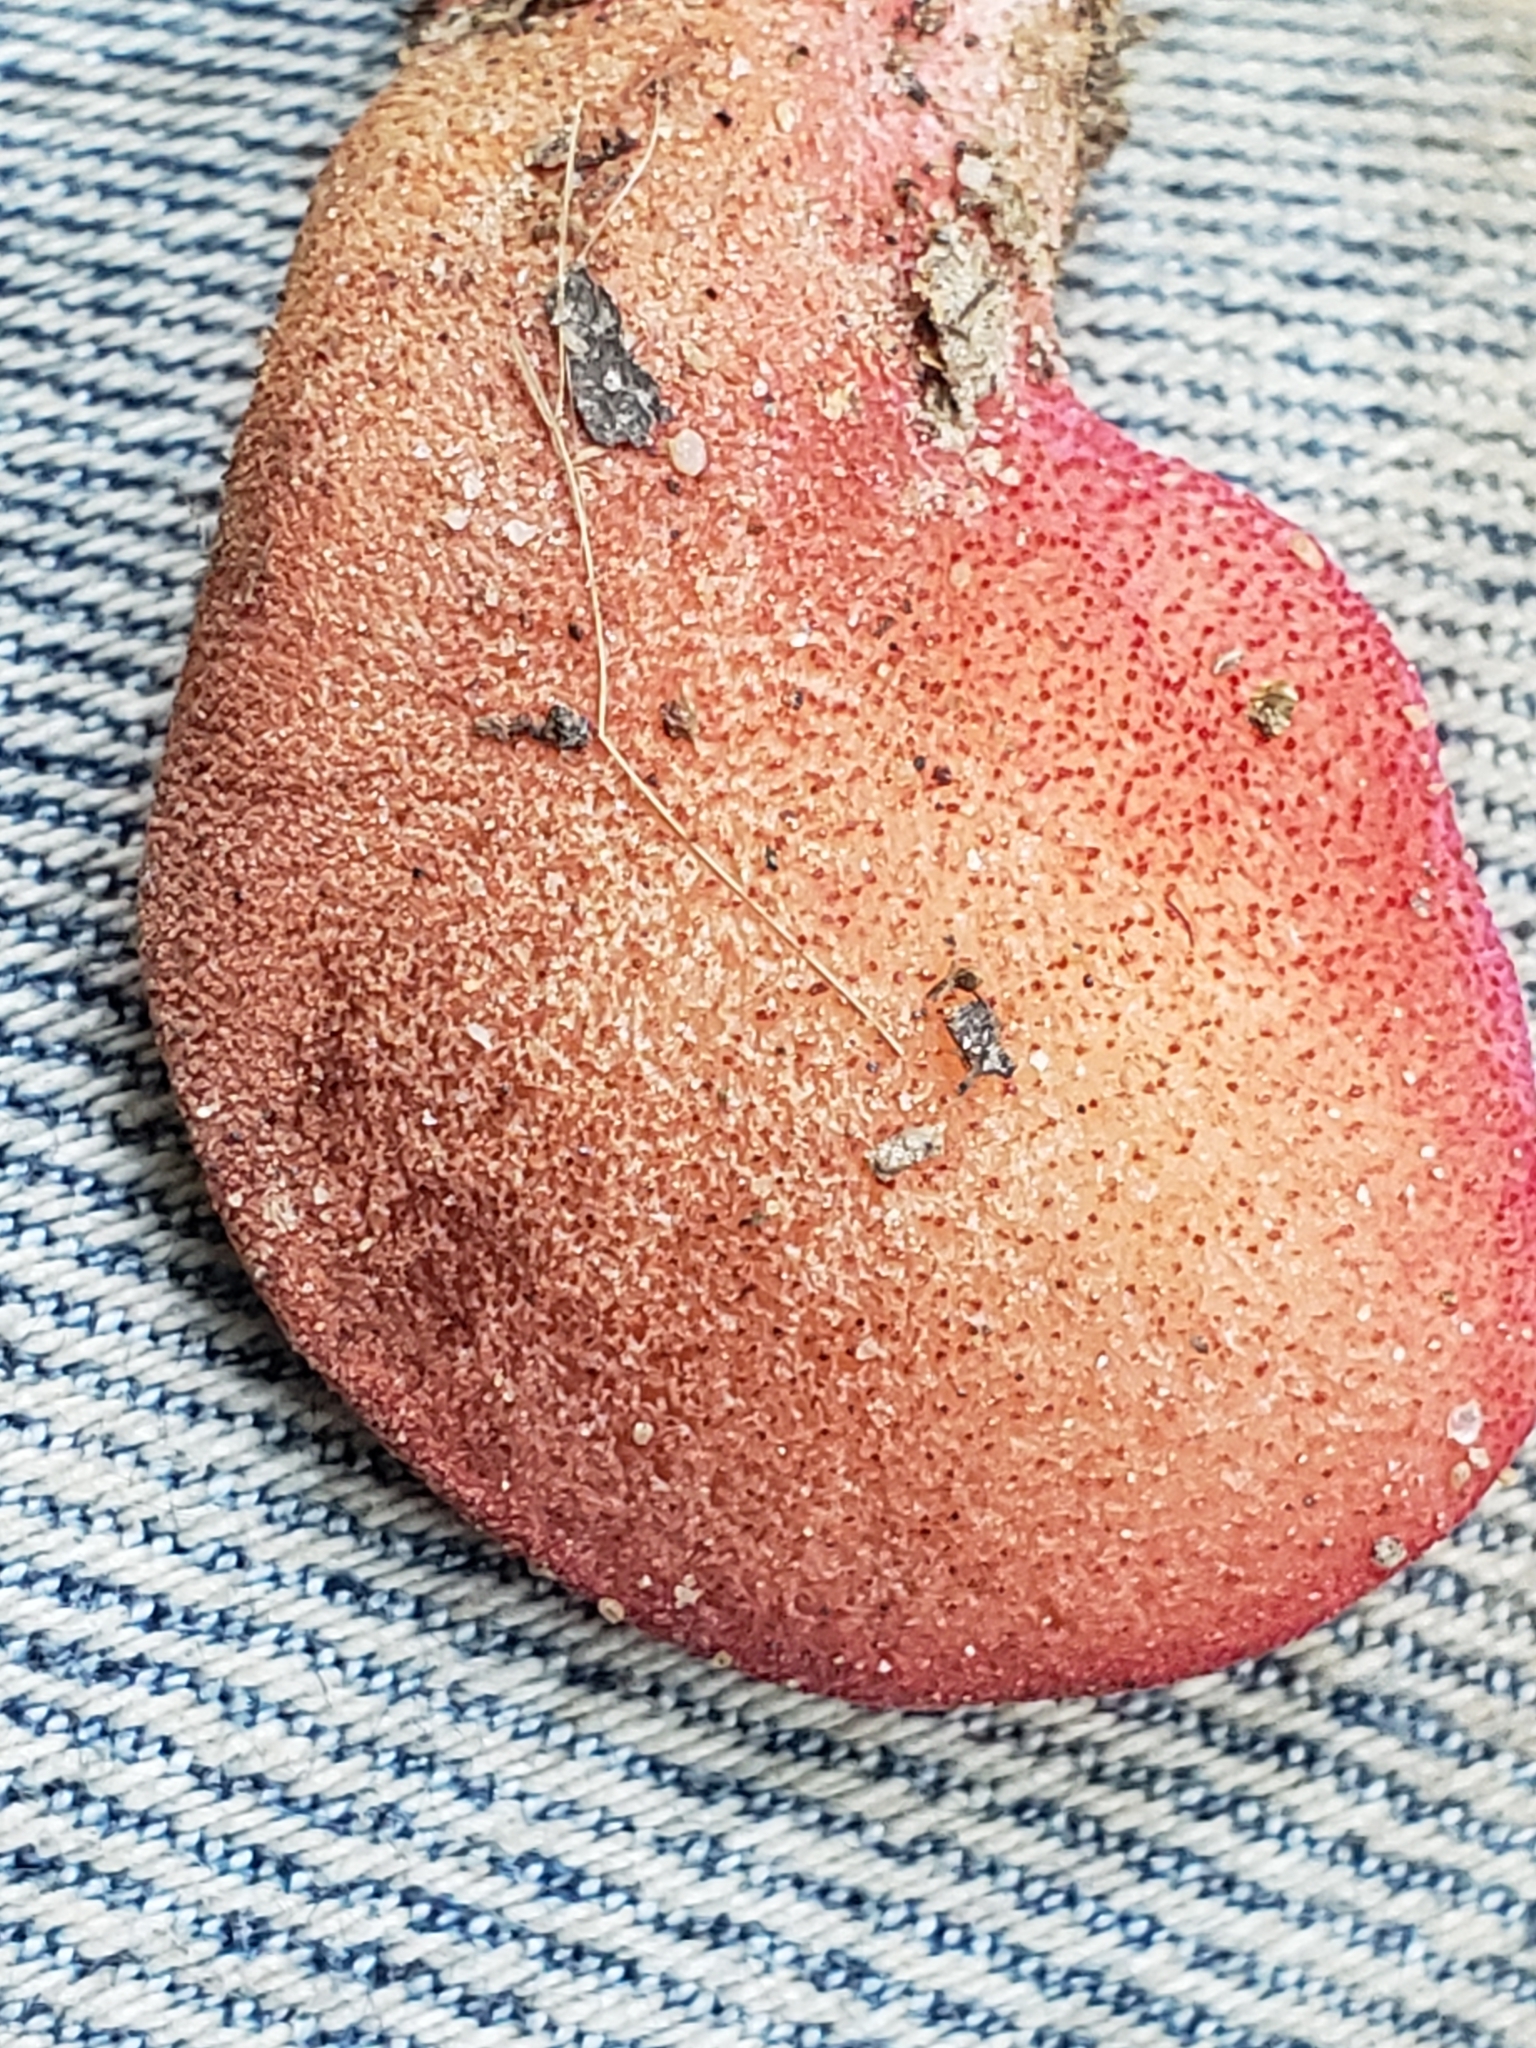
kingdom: Fungi
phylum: Basidiomycota
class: Agaricomycetes
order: Agaricales
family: Fistulinaceae
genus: Fistulina
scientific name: Fistulina hepatica
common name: Beef-steak fungus
